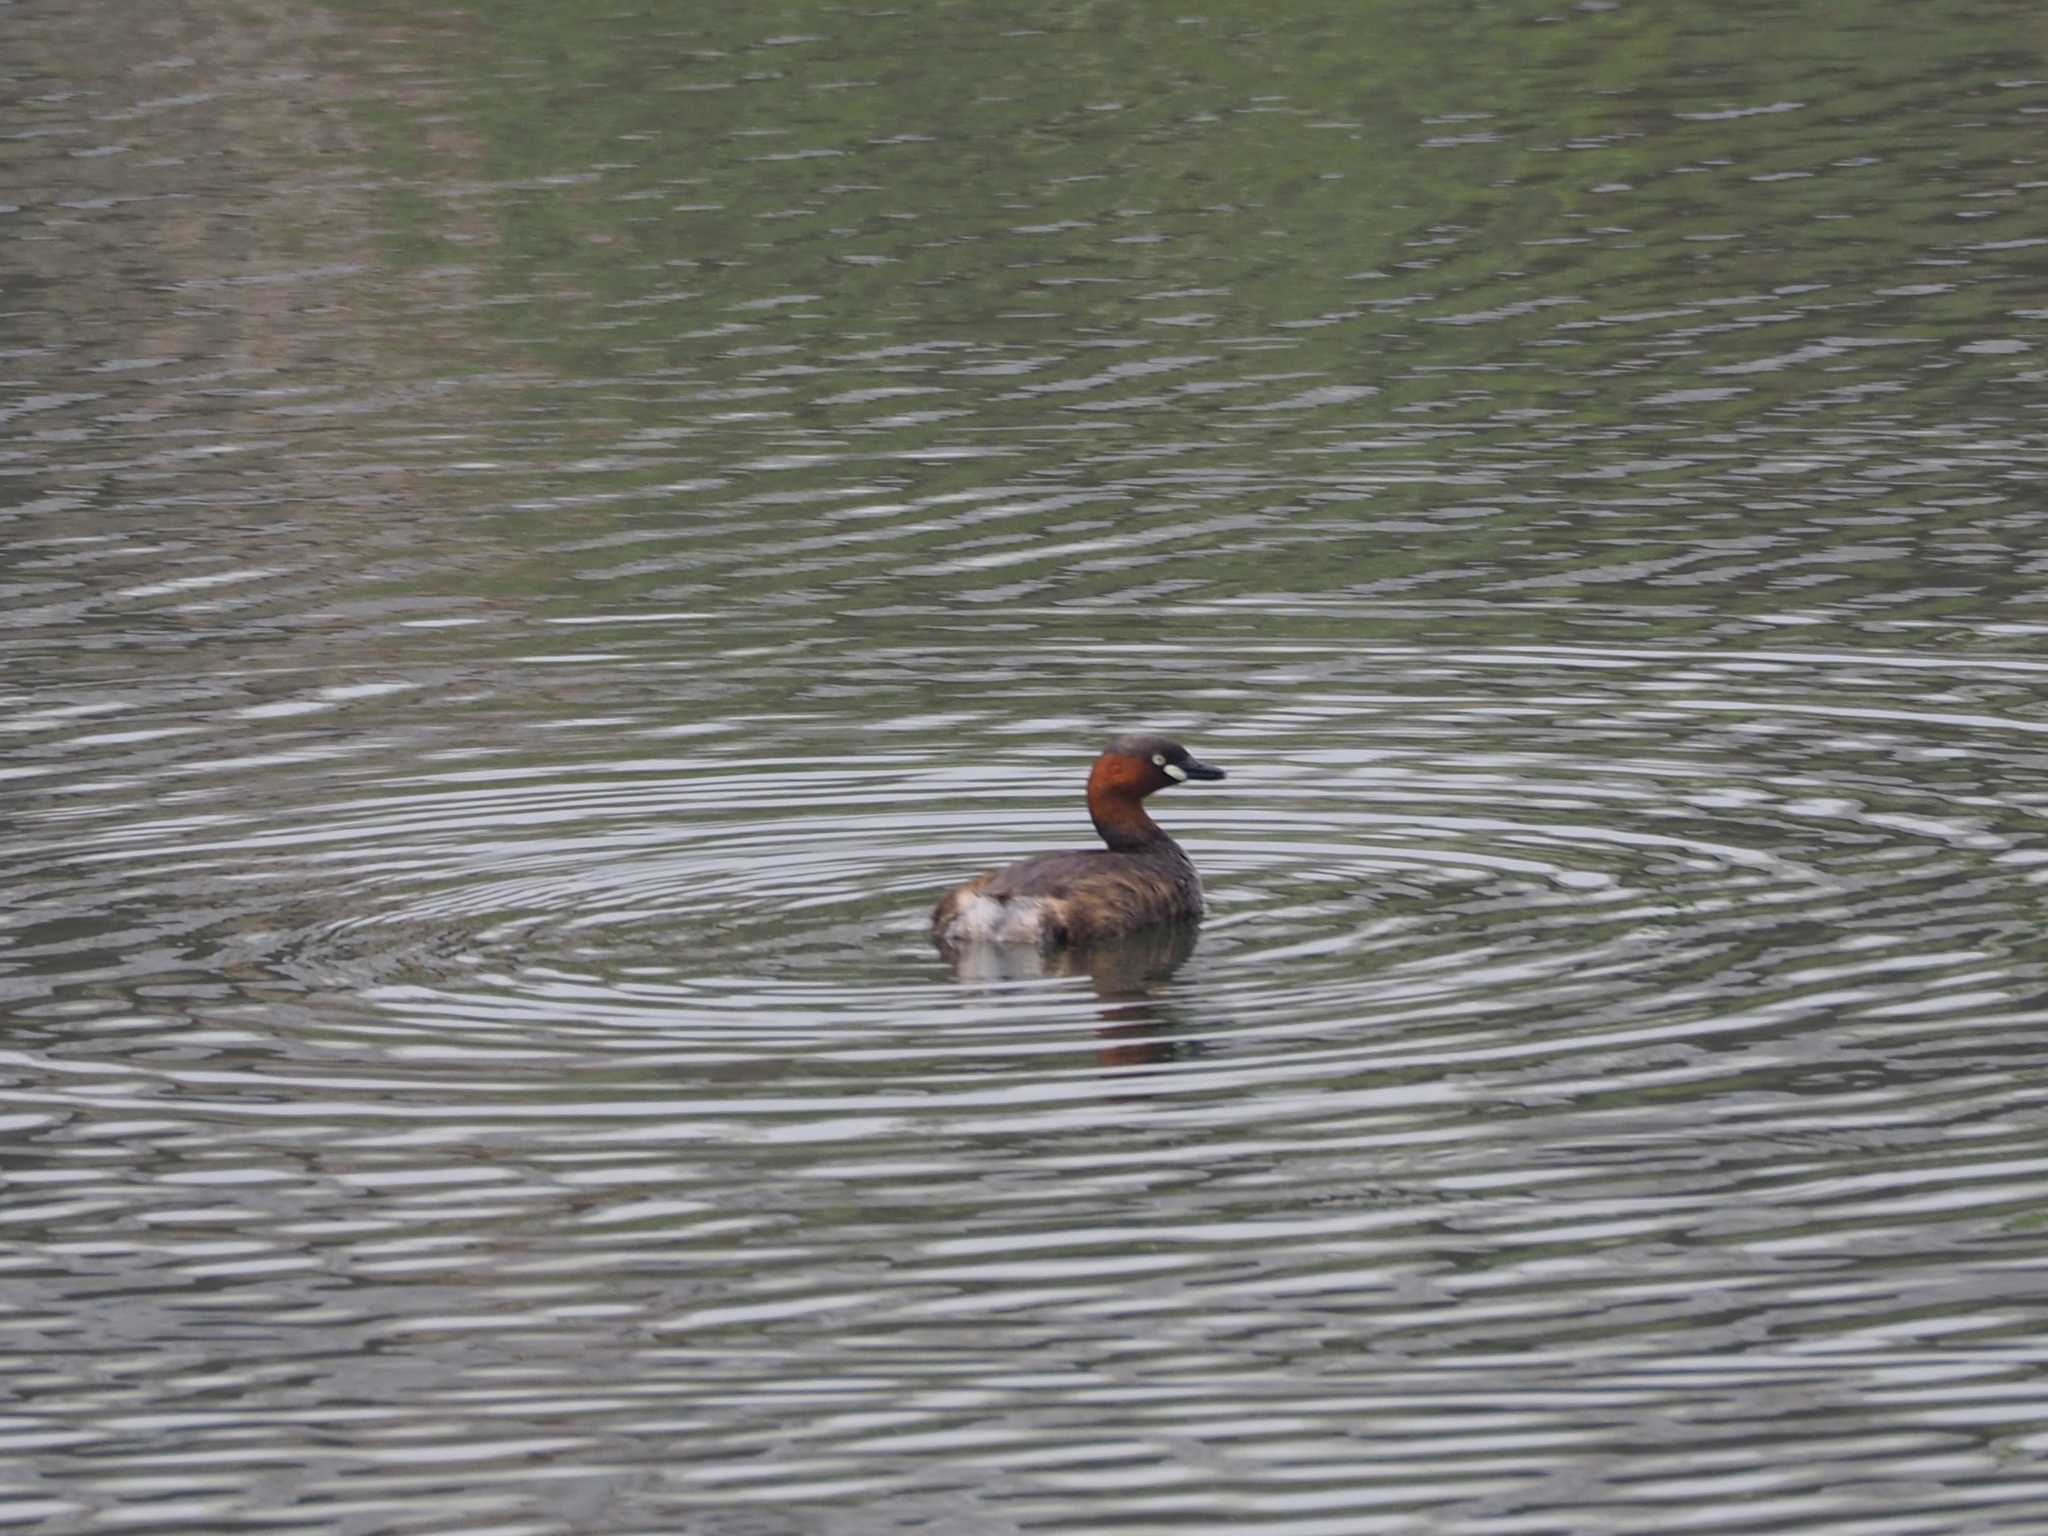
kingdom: Animalia
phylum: Chordata
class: Aves
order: Podicipediformes
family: Podicipedidae
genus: Tachybaptus
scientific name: Tachybaptus ruficollis
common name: Little grebe
